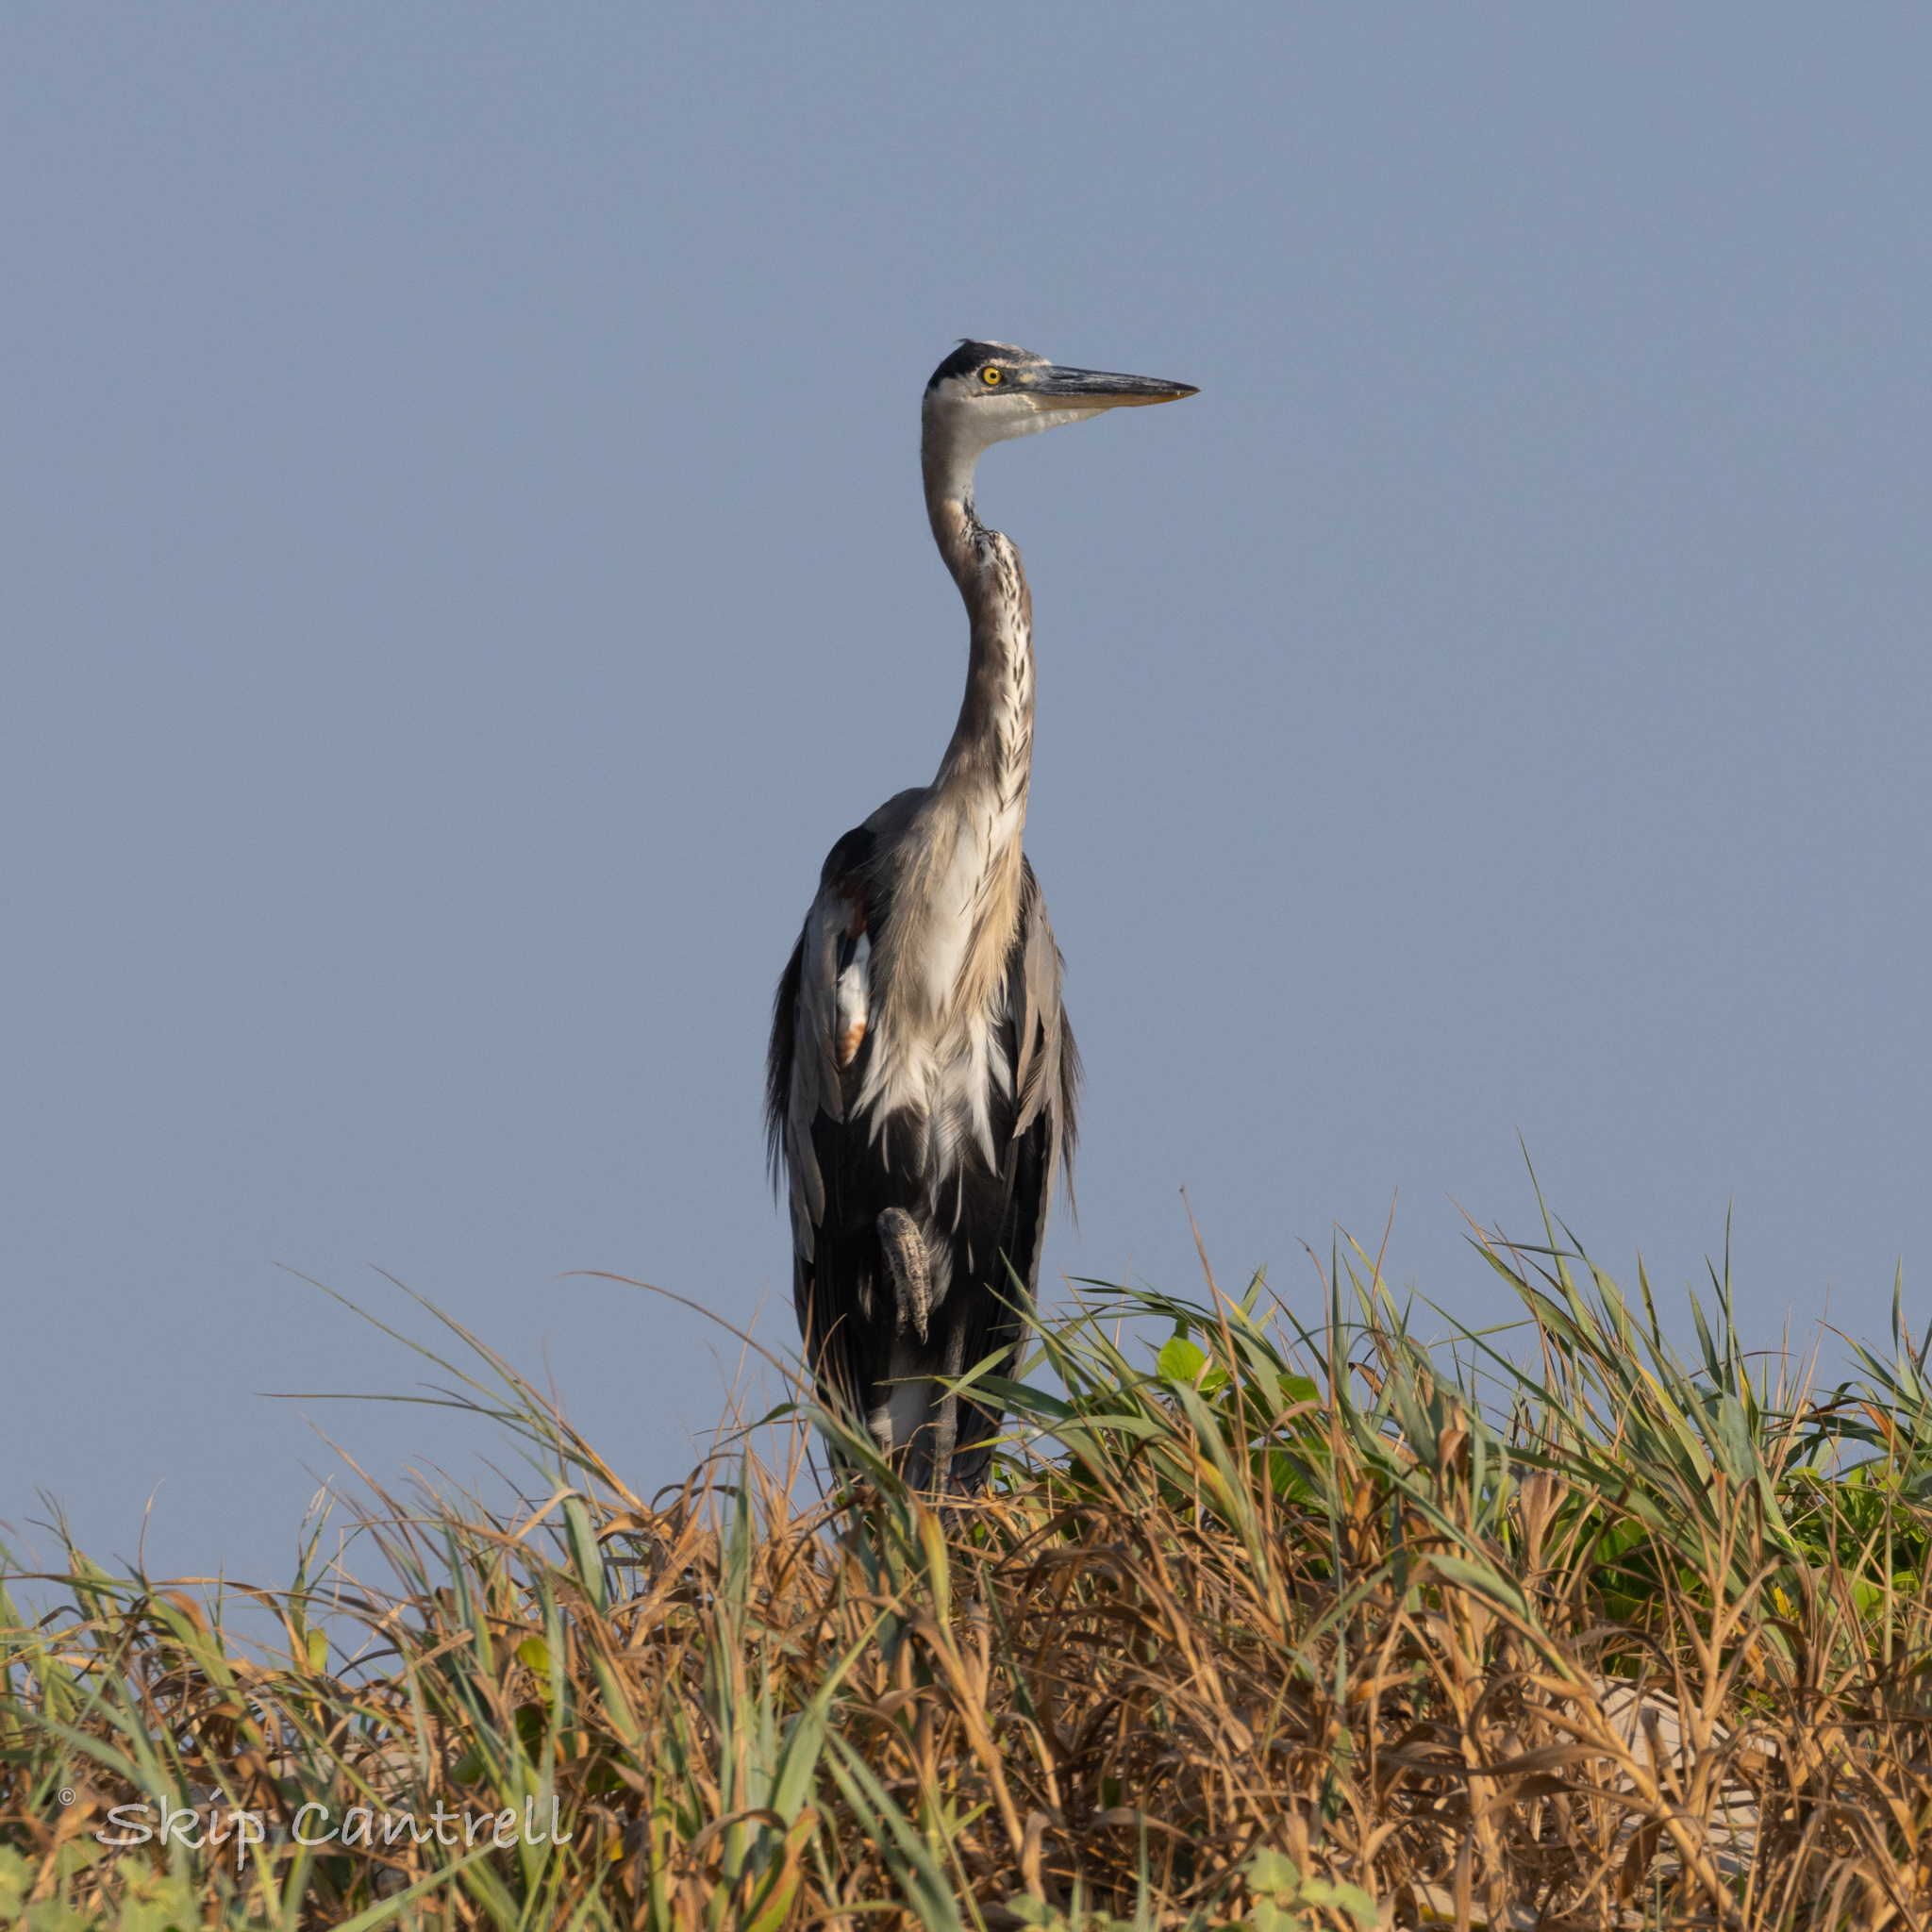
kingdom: Animalia
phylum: Chordata
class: Aves
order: Pelecaniformes
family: Ardeidae
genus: Ardea
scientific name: Ardea herodias
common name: Great blue heron
